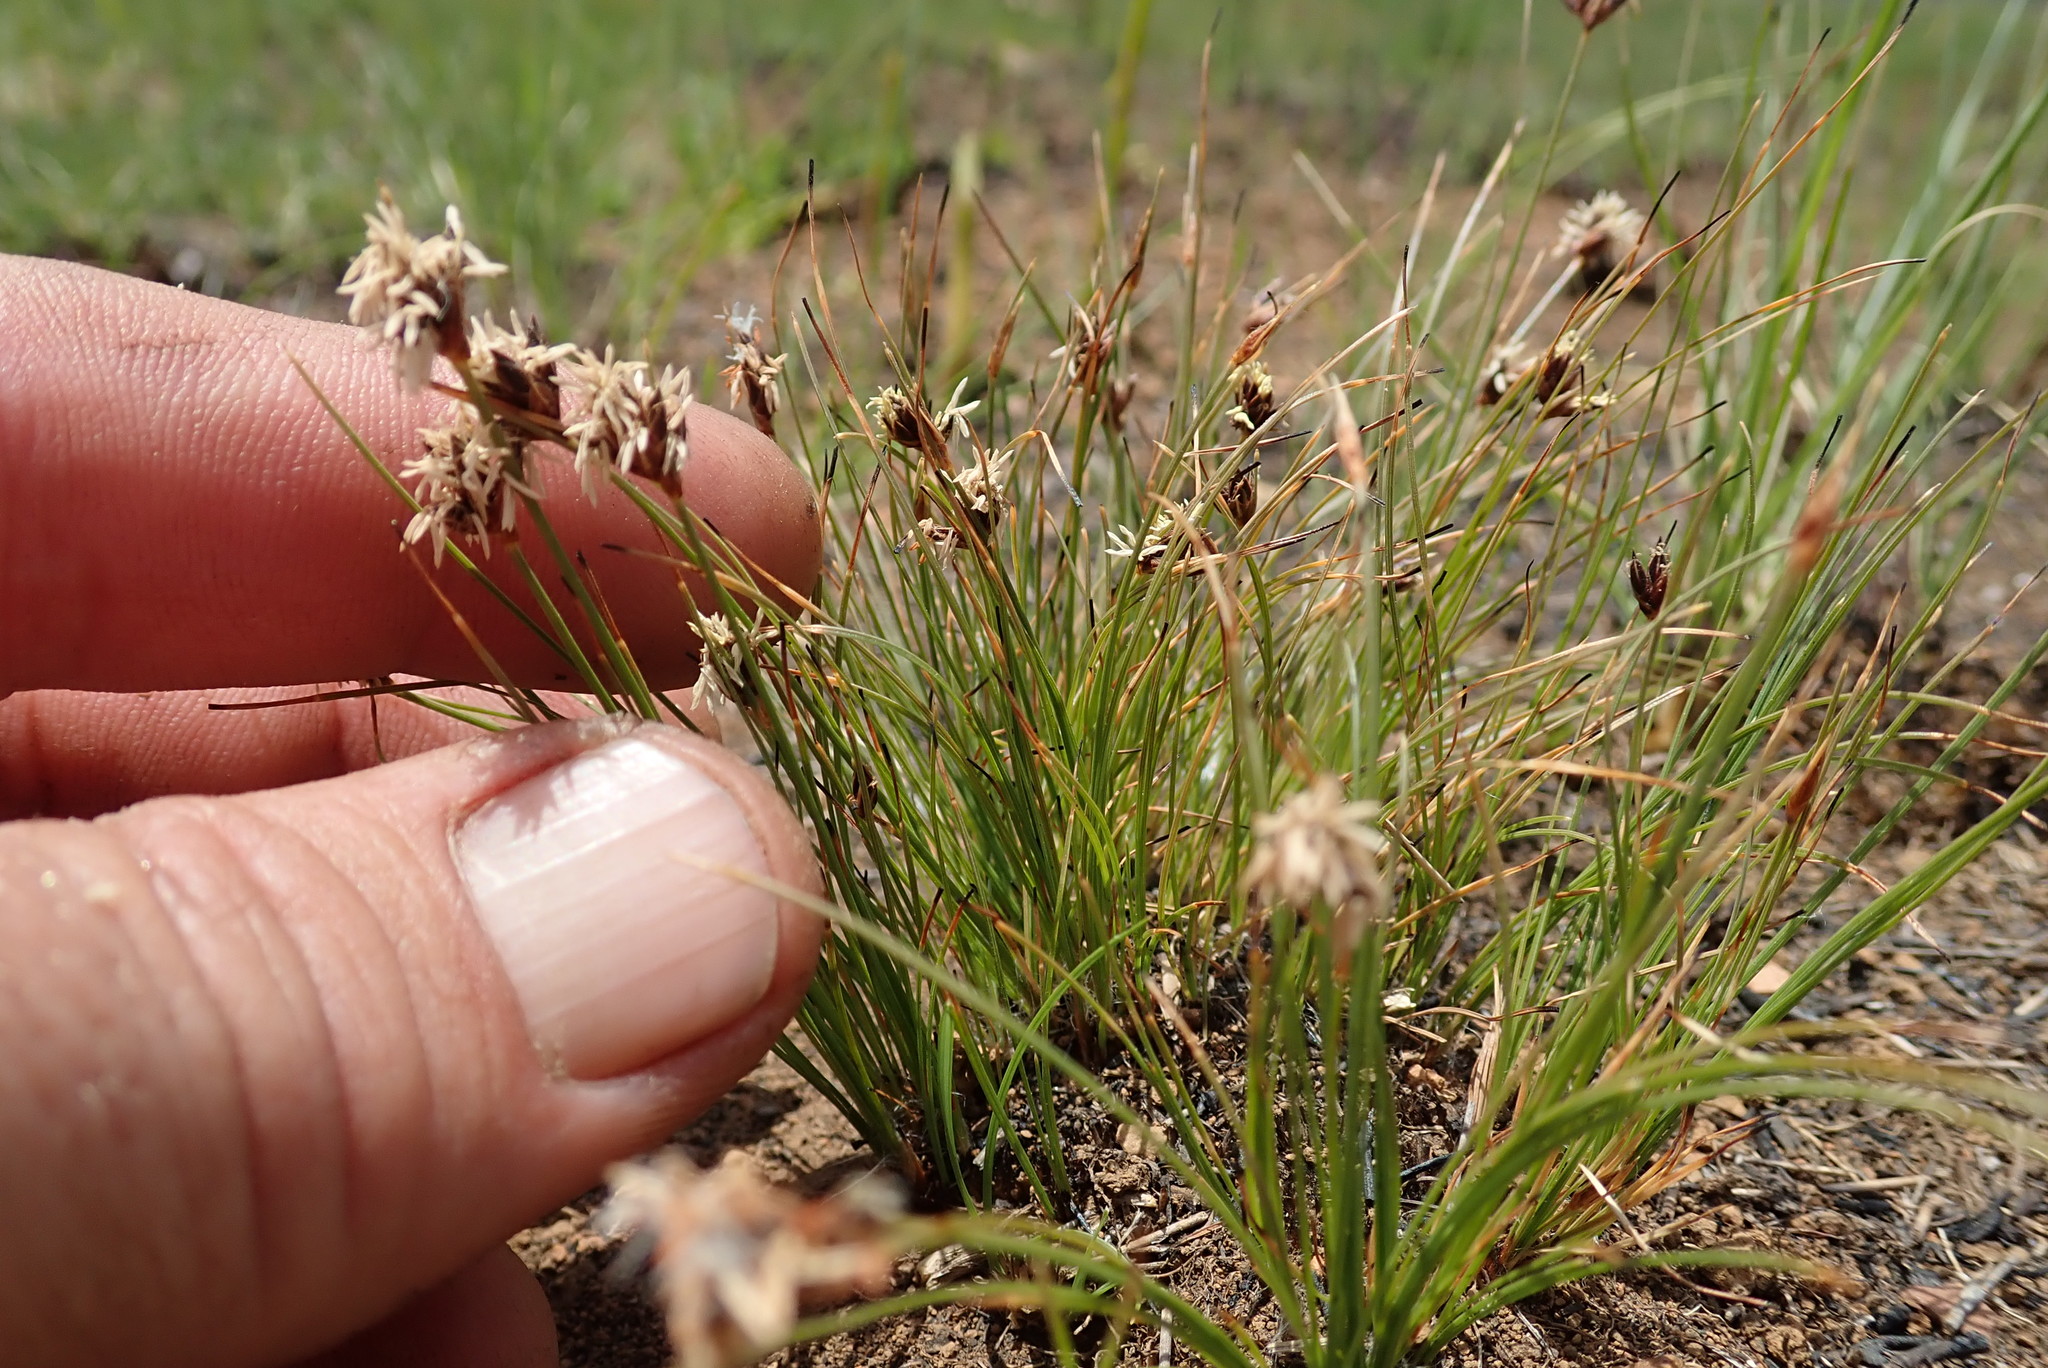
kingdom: Plantae
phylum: Tracheophyta
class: Liliopsida
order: Poales
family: Cyperaceae
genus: Bulbostylis
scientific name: Bulbostylis oritrephes
